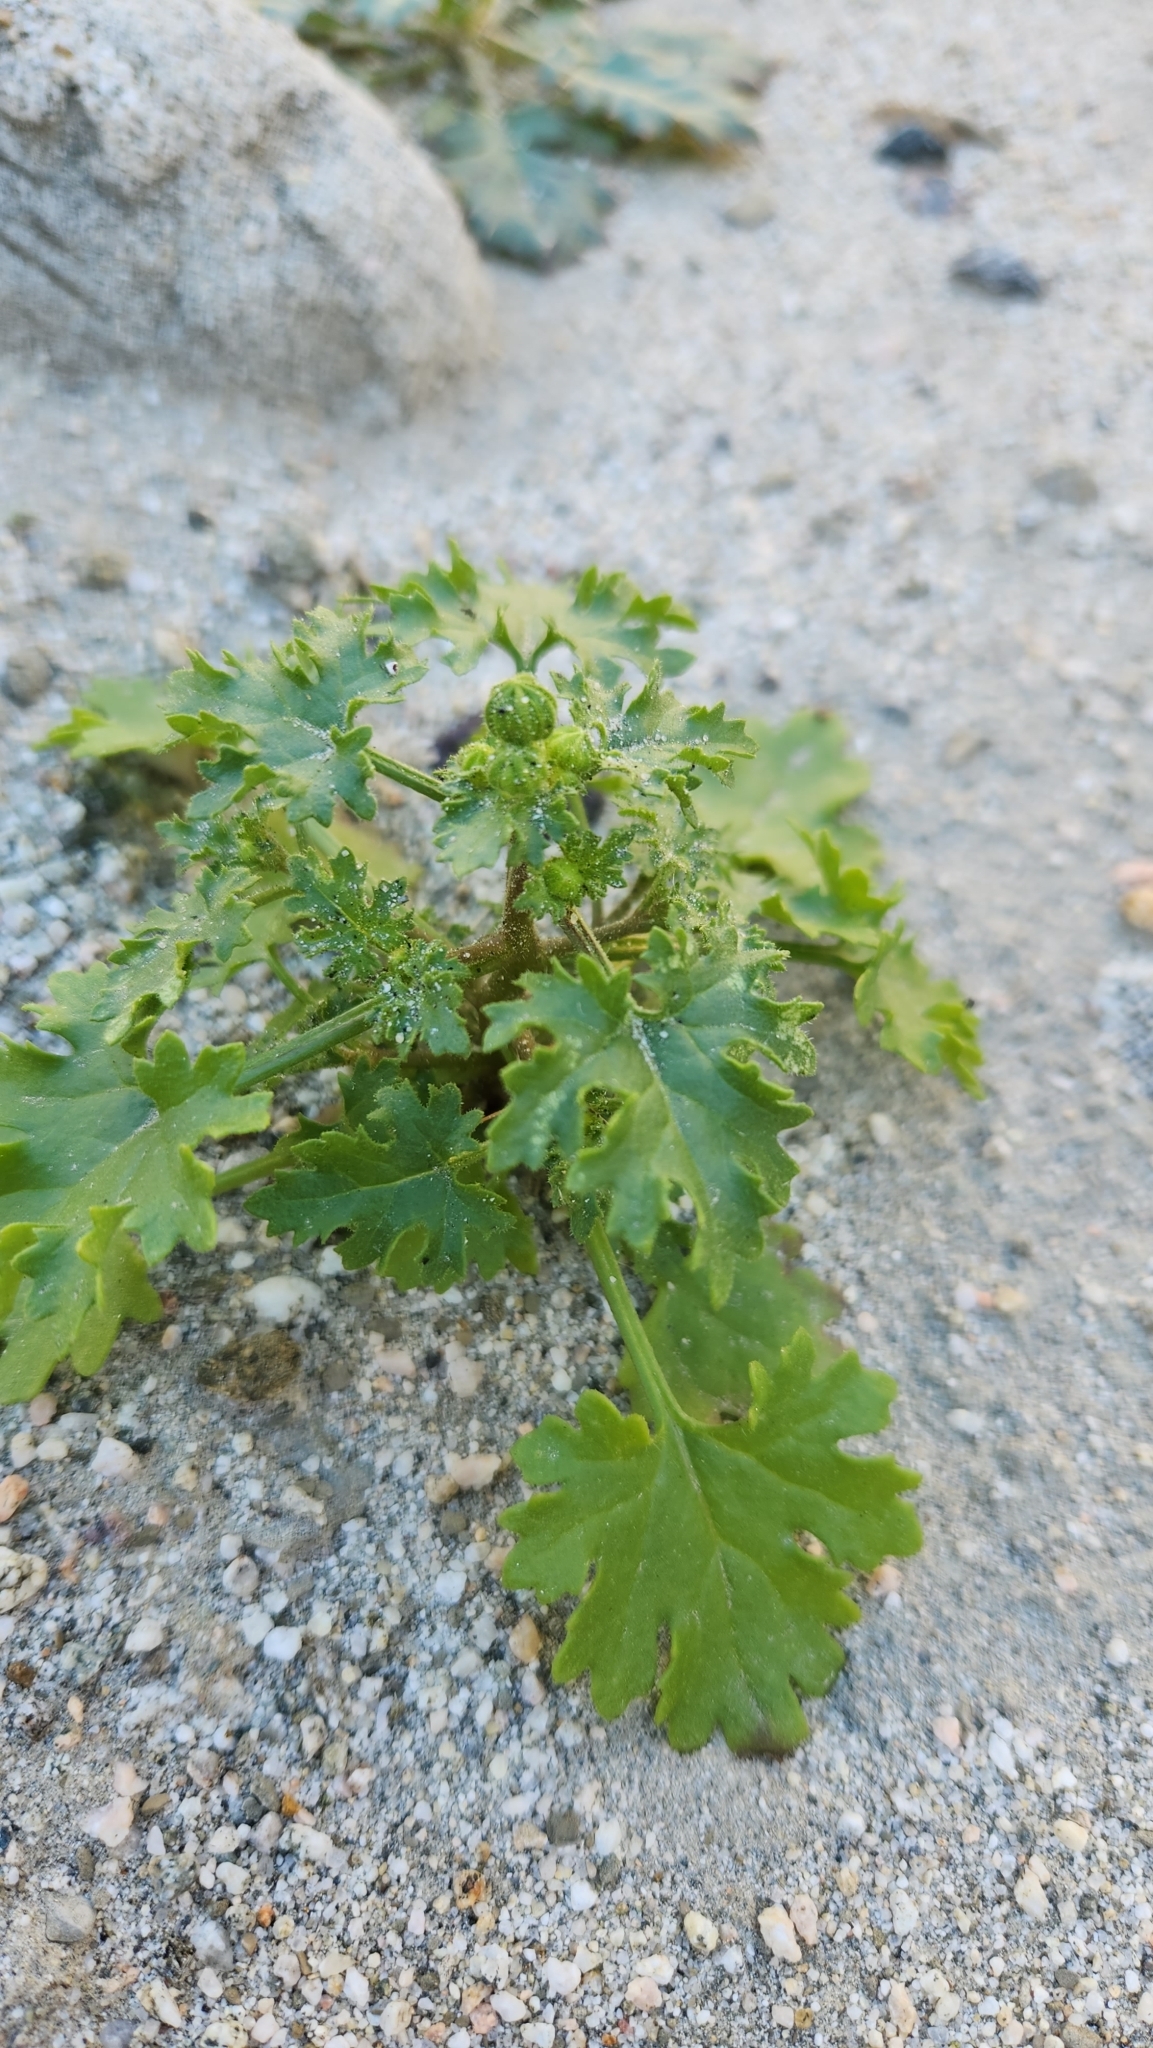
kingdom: Plantae
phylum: Tracheophyta
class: Magnoliopsida
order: Asterales
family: Asteraceae
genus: Laphamia
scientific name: Laphamia emoryi
